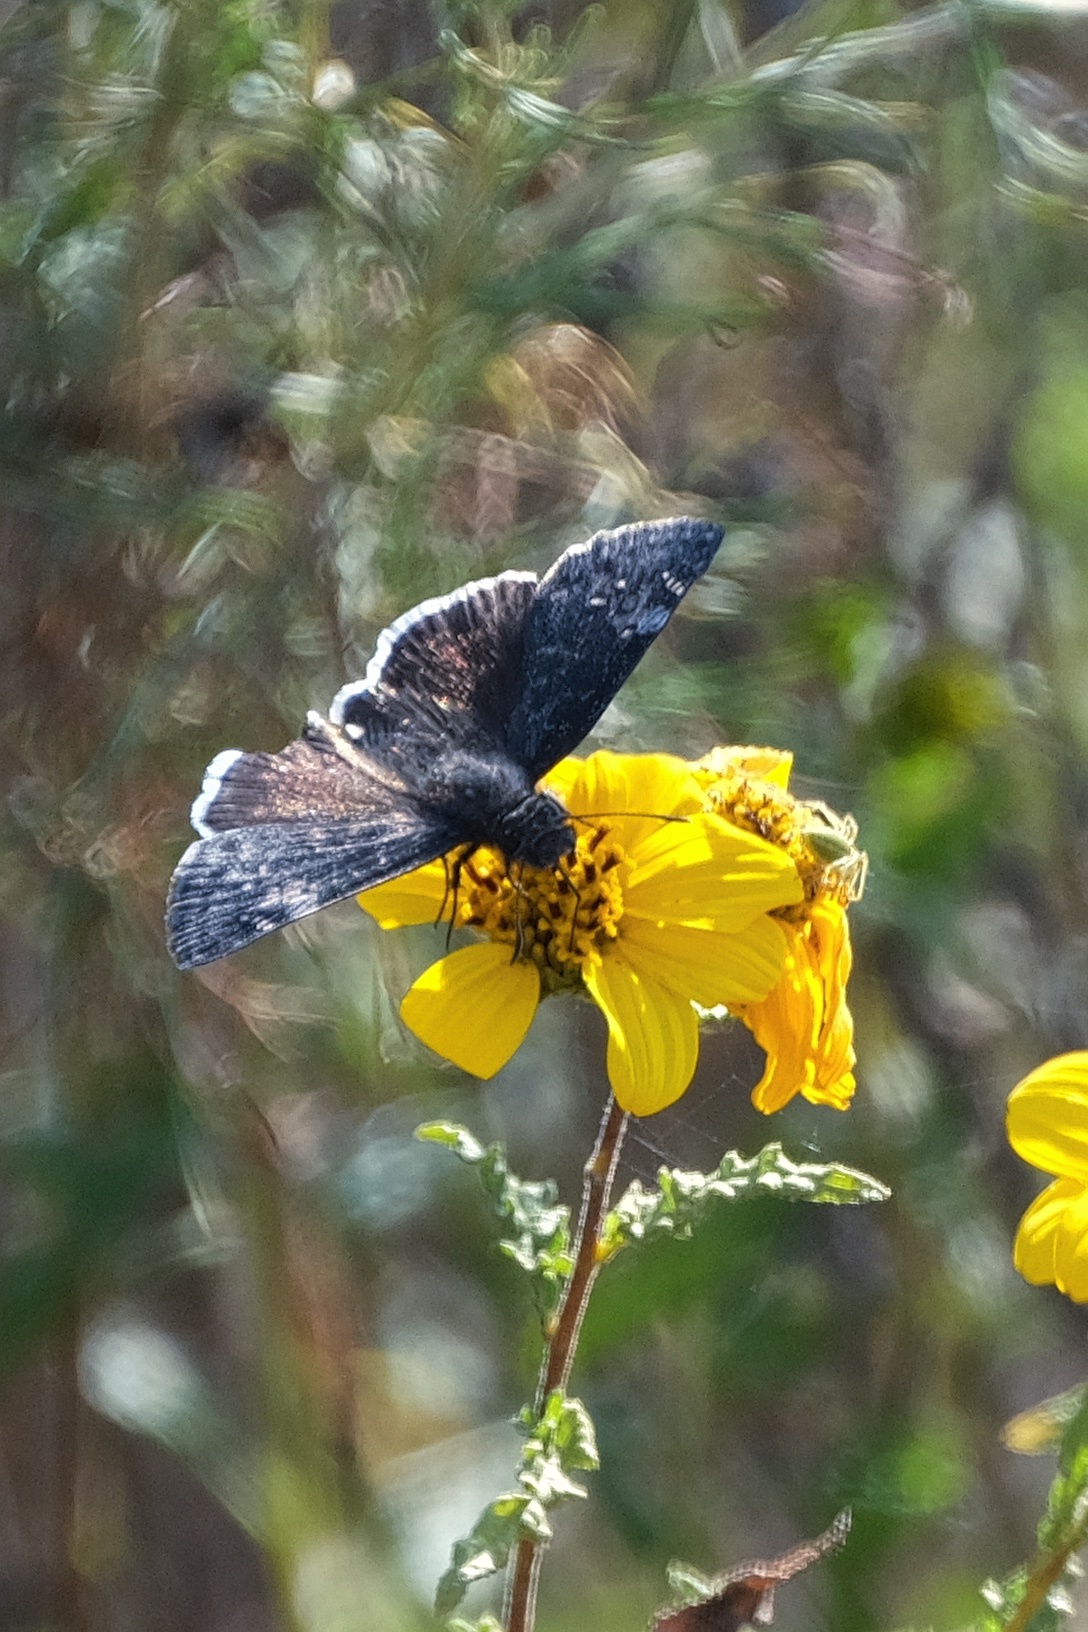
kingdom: Animalia
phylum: Arthropoda
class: Insecta
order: Lepidoptera
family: Hesperiidae
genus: Erynnis
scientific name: Erynnis funeralis
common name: Funereal duskywing
